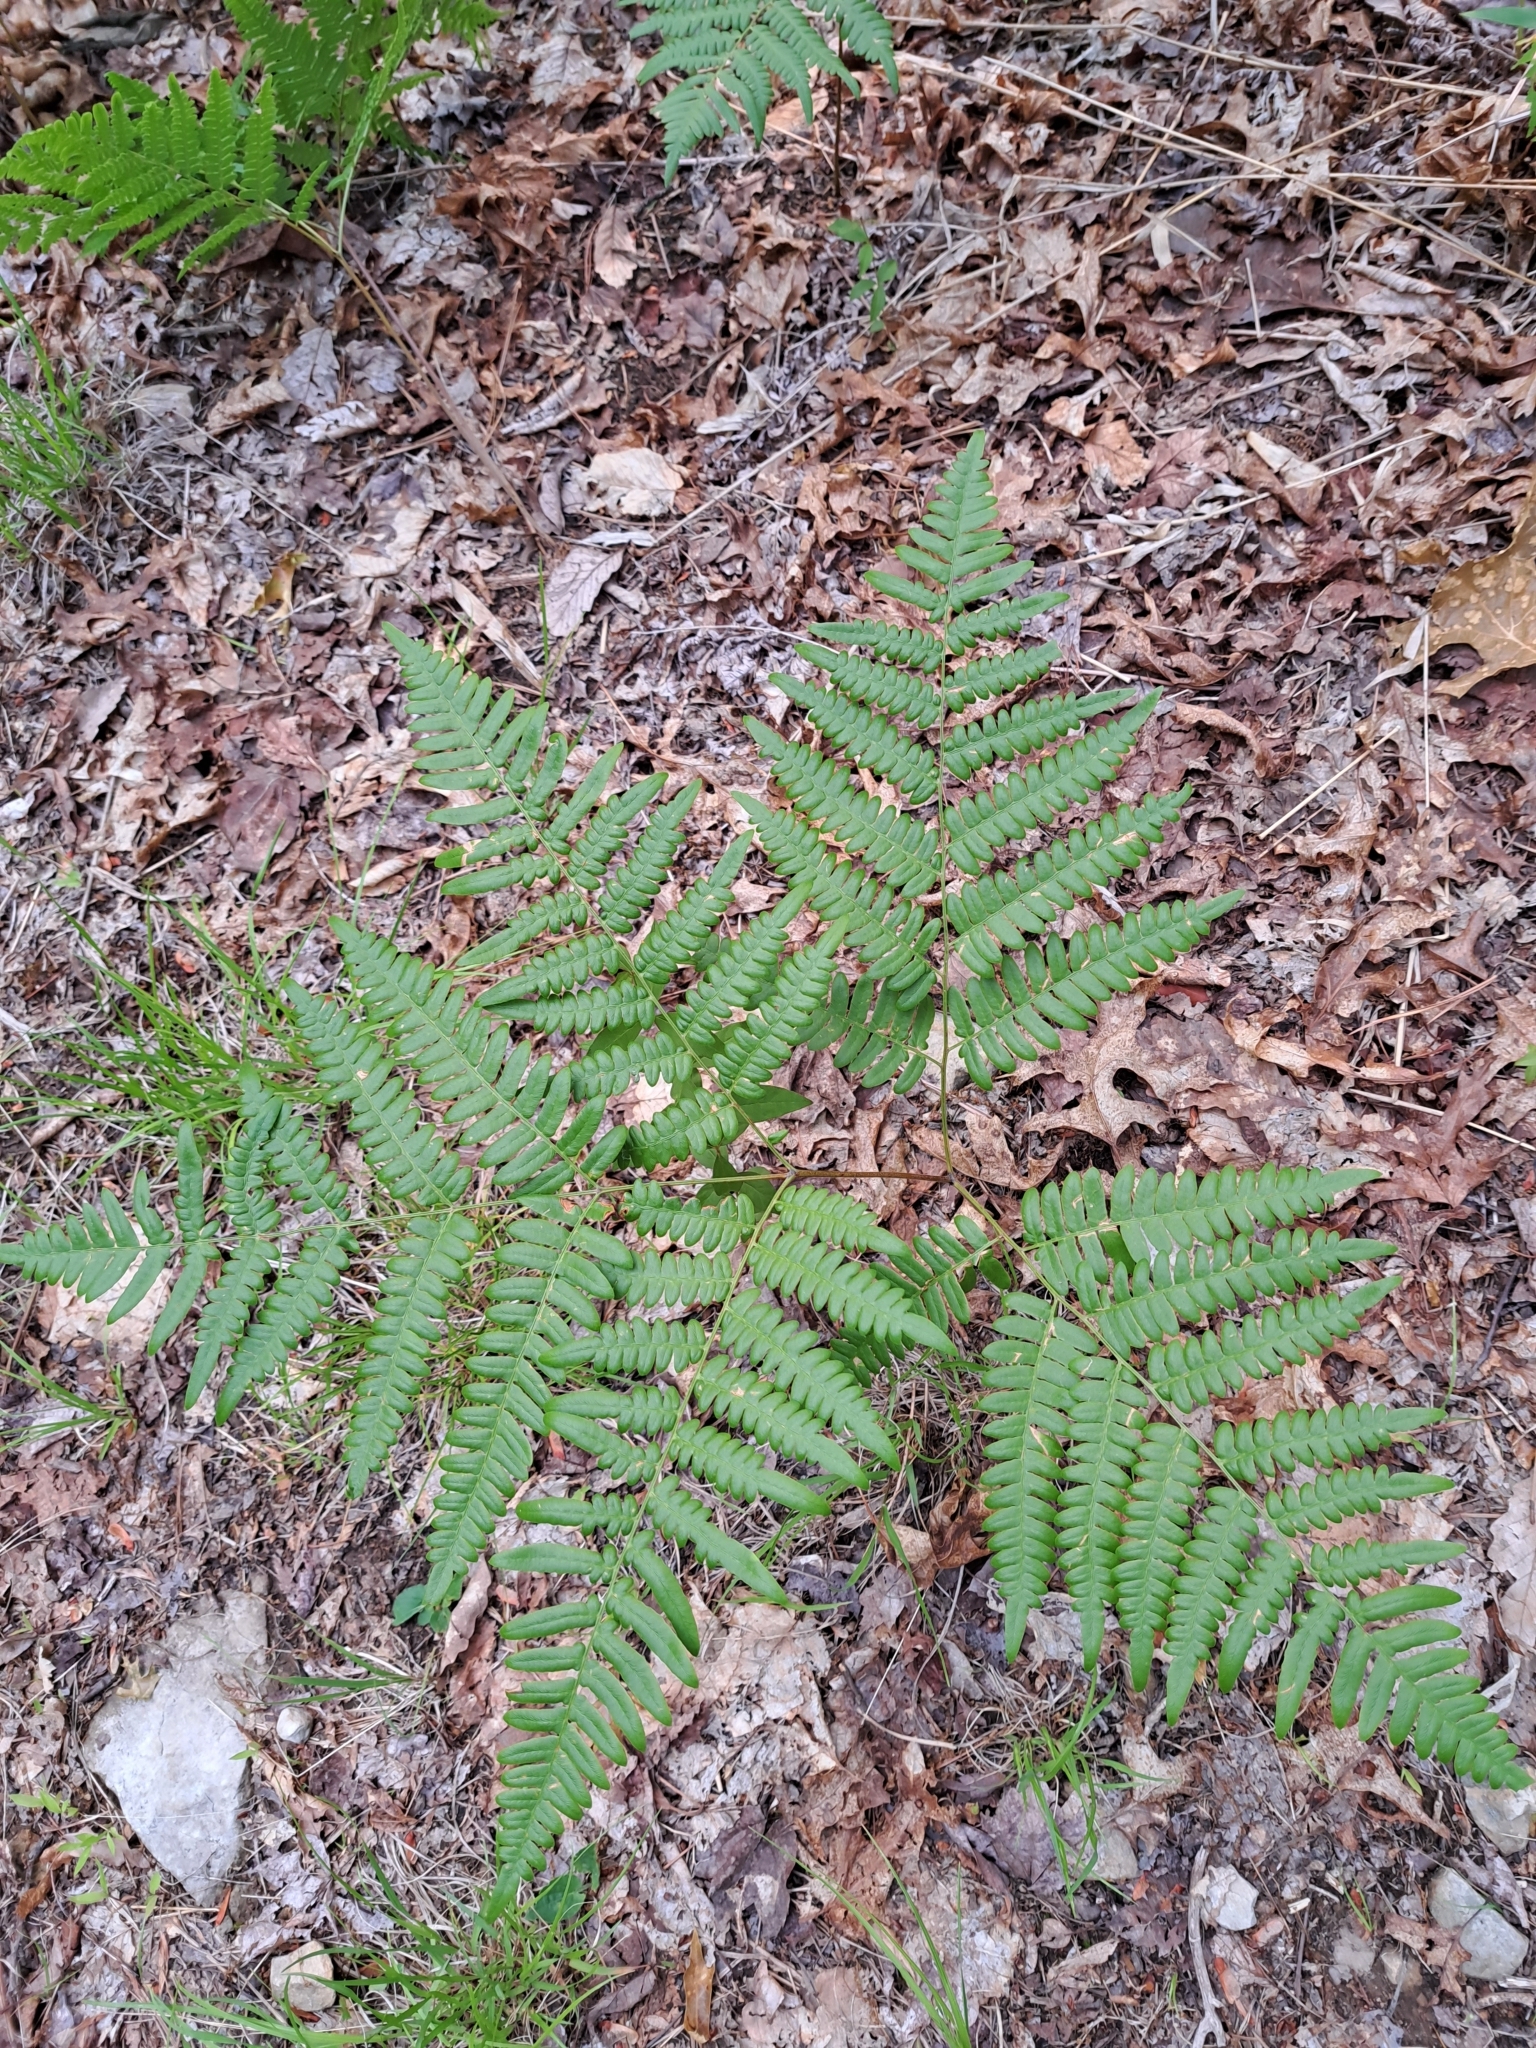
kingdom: Plantae
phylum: Tracheophyta
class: Polypodiopsida
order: Polypodiales
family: Dennstaedtiaceae
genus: Pteridium
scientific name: Pteridium aquilinum
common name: Bracken
